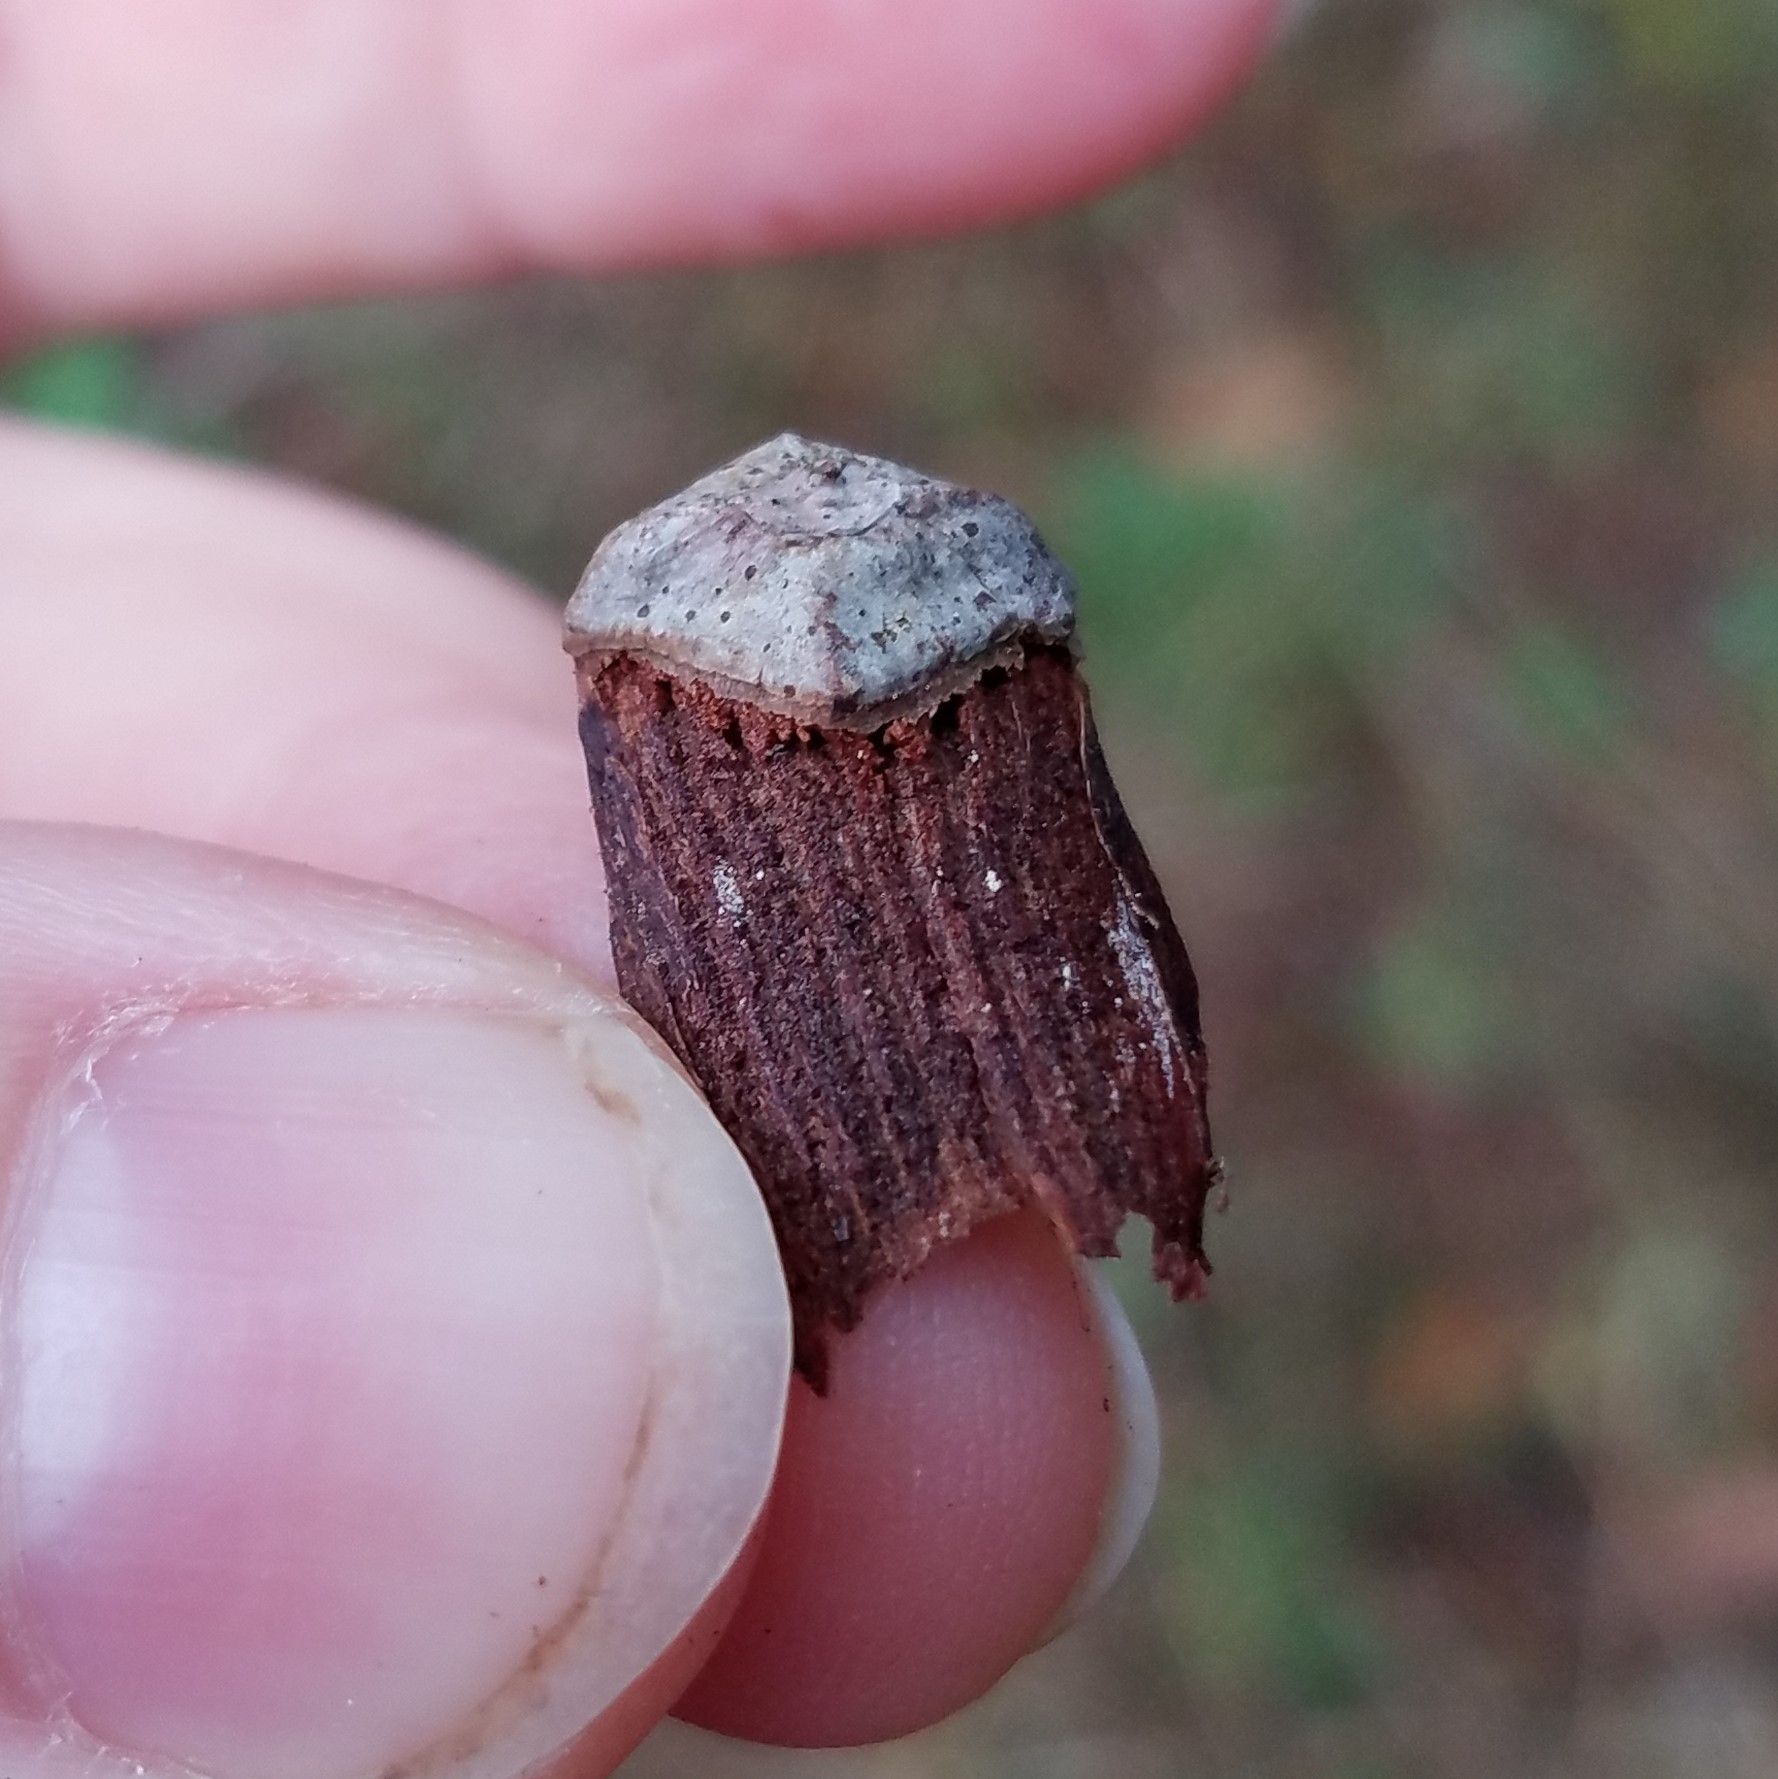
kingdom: Plantae
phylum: Tracheophyta
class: Pinopsida
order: Pinales
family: Pinaceae
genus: Pinus
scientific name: Pinus echinata
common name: Shortleaf pine
